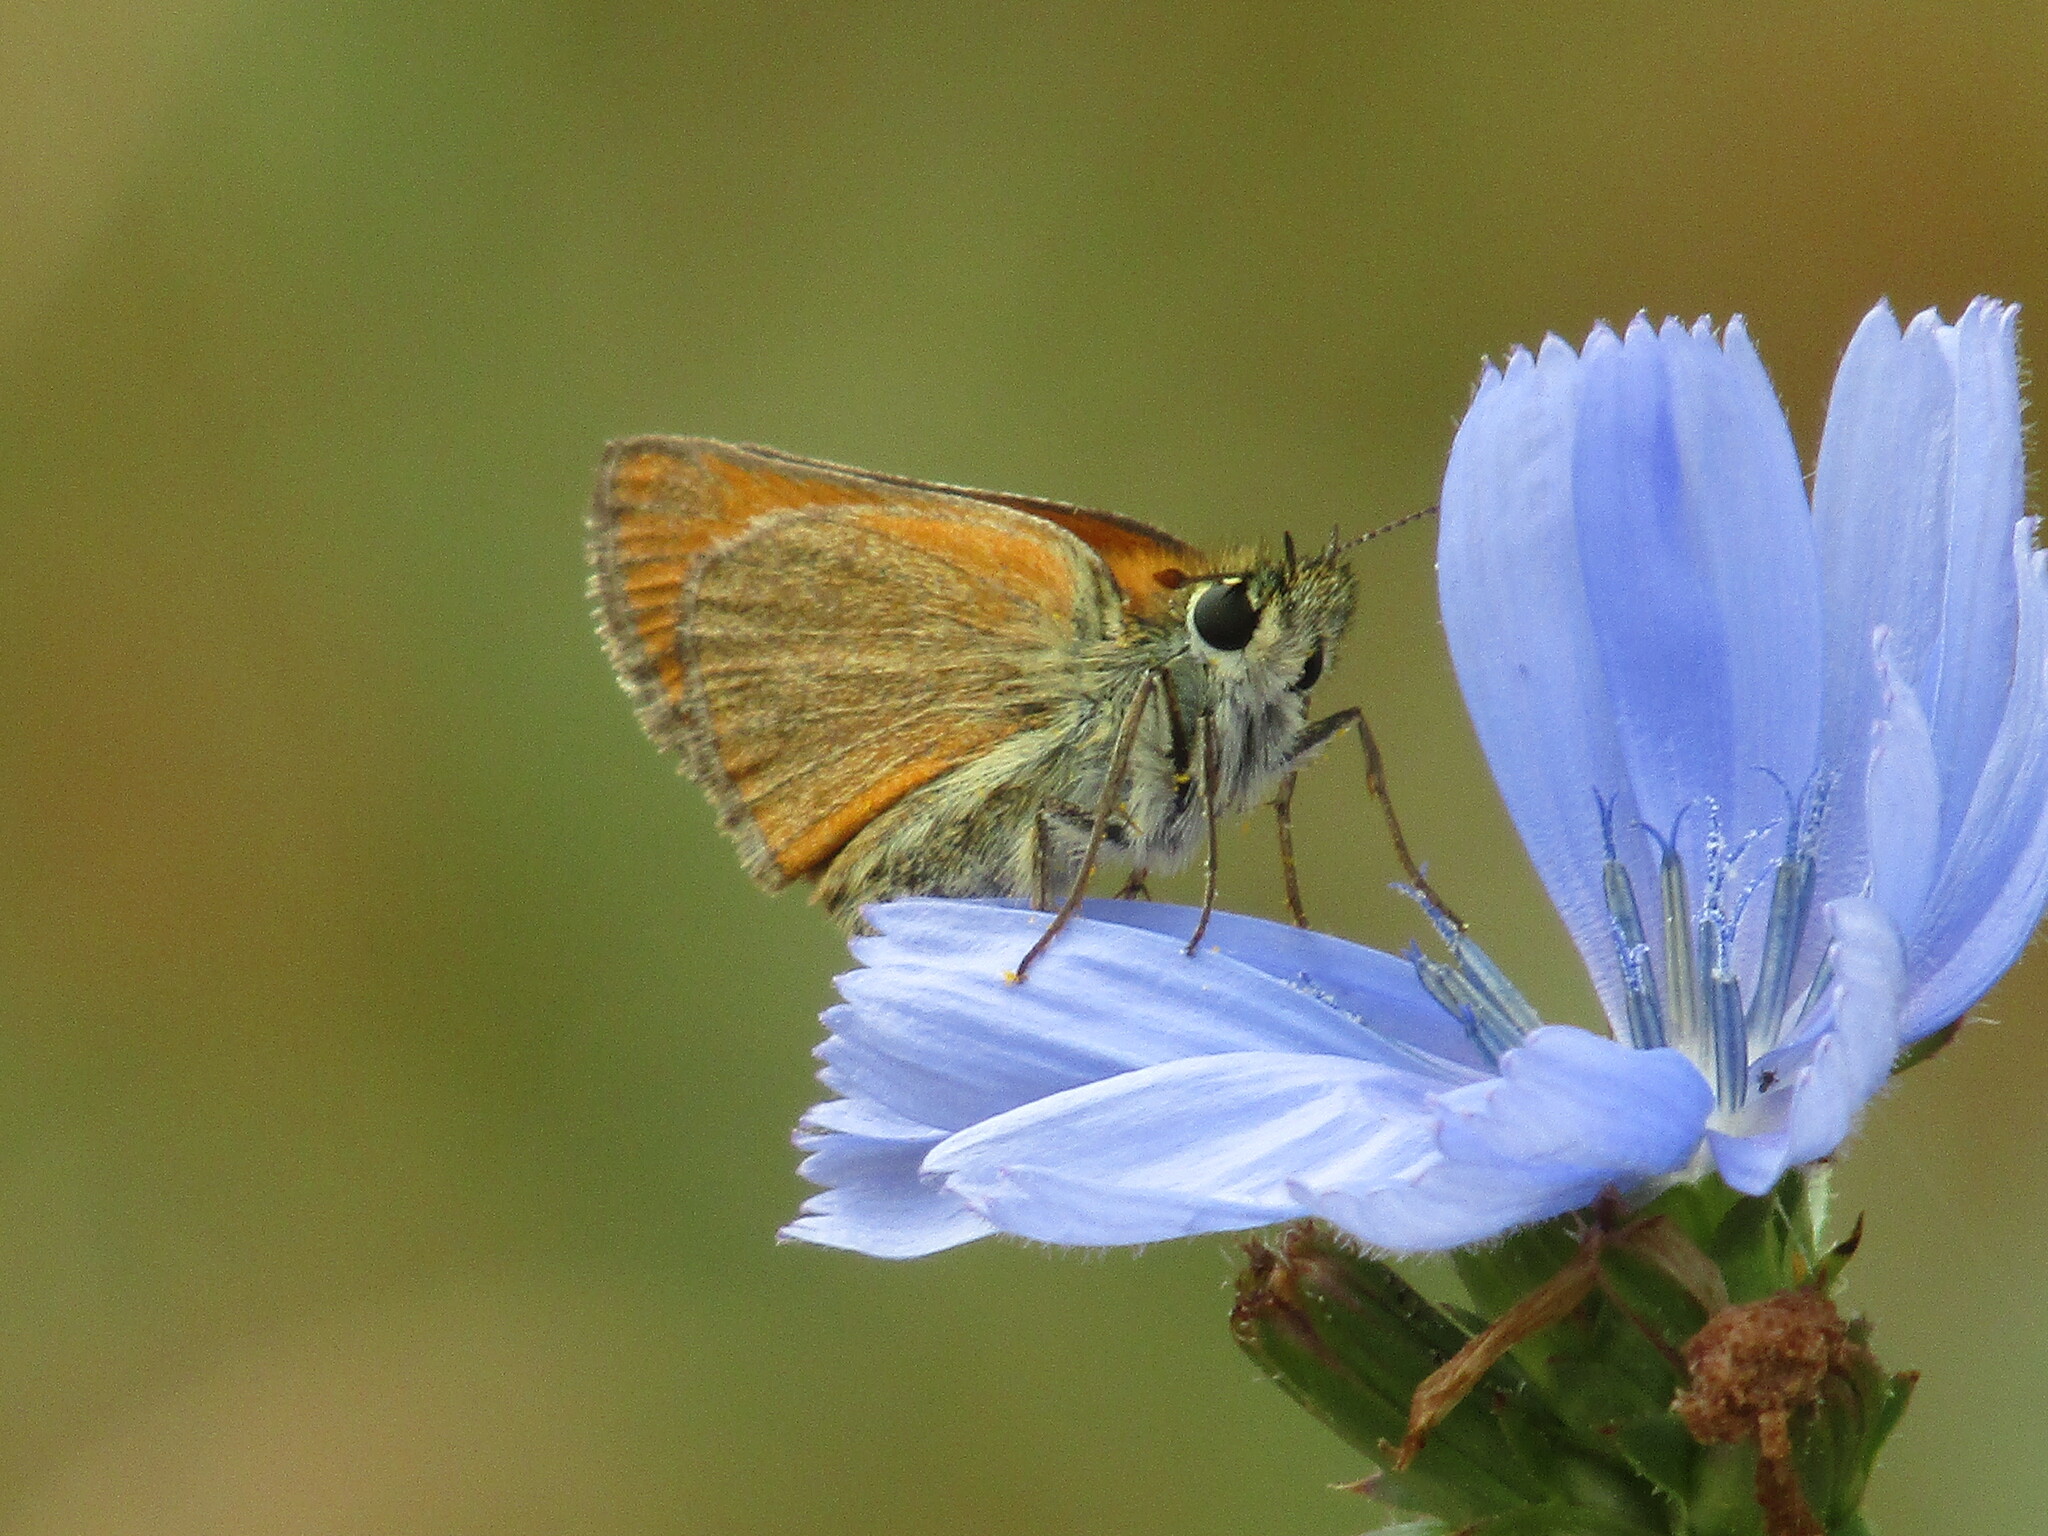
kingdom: Animalia
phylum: Arthropoda
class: Insecta
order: Lepidoptera
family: Hesperiidae
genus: Thymelicus
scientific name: Thymelicus sylvestris
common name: Small skipper
